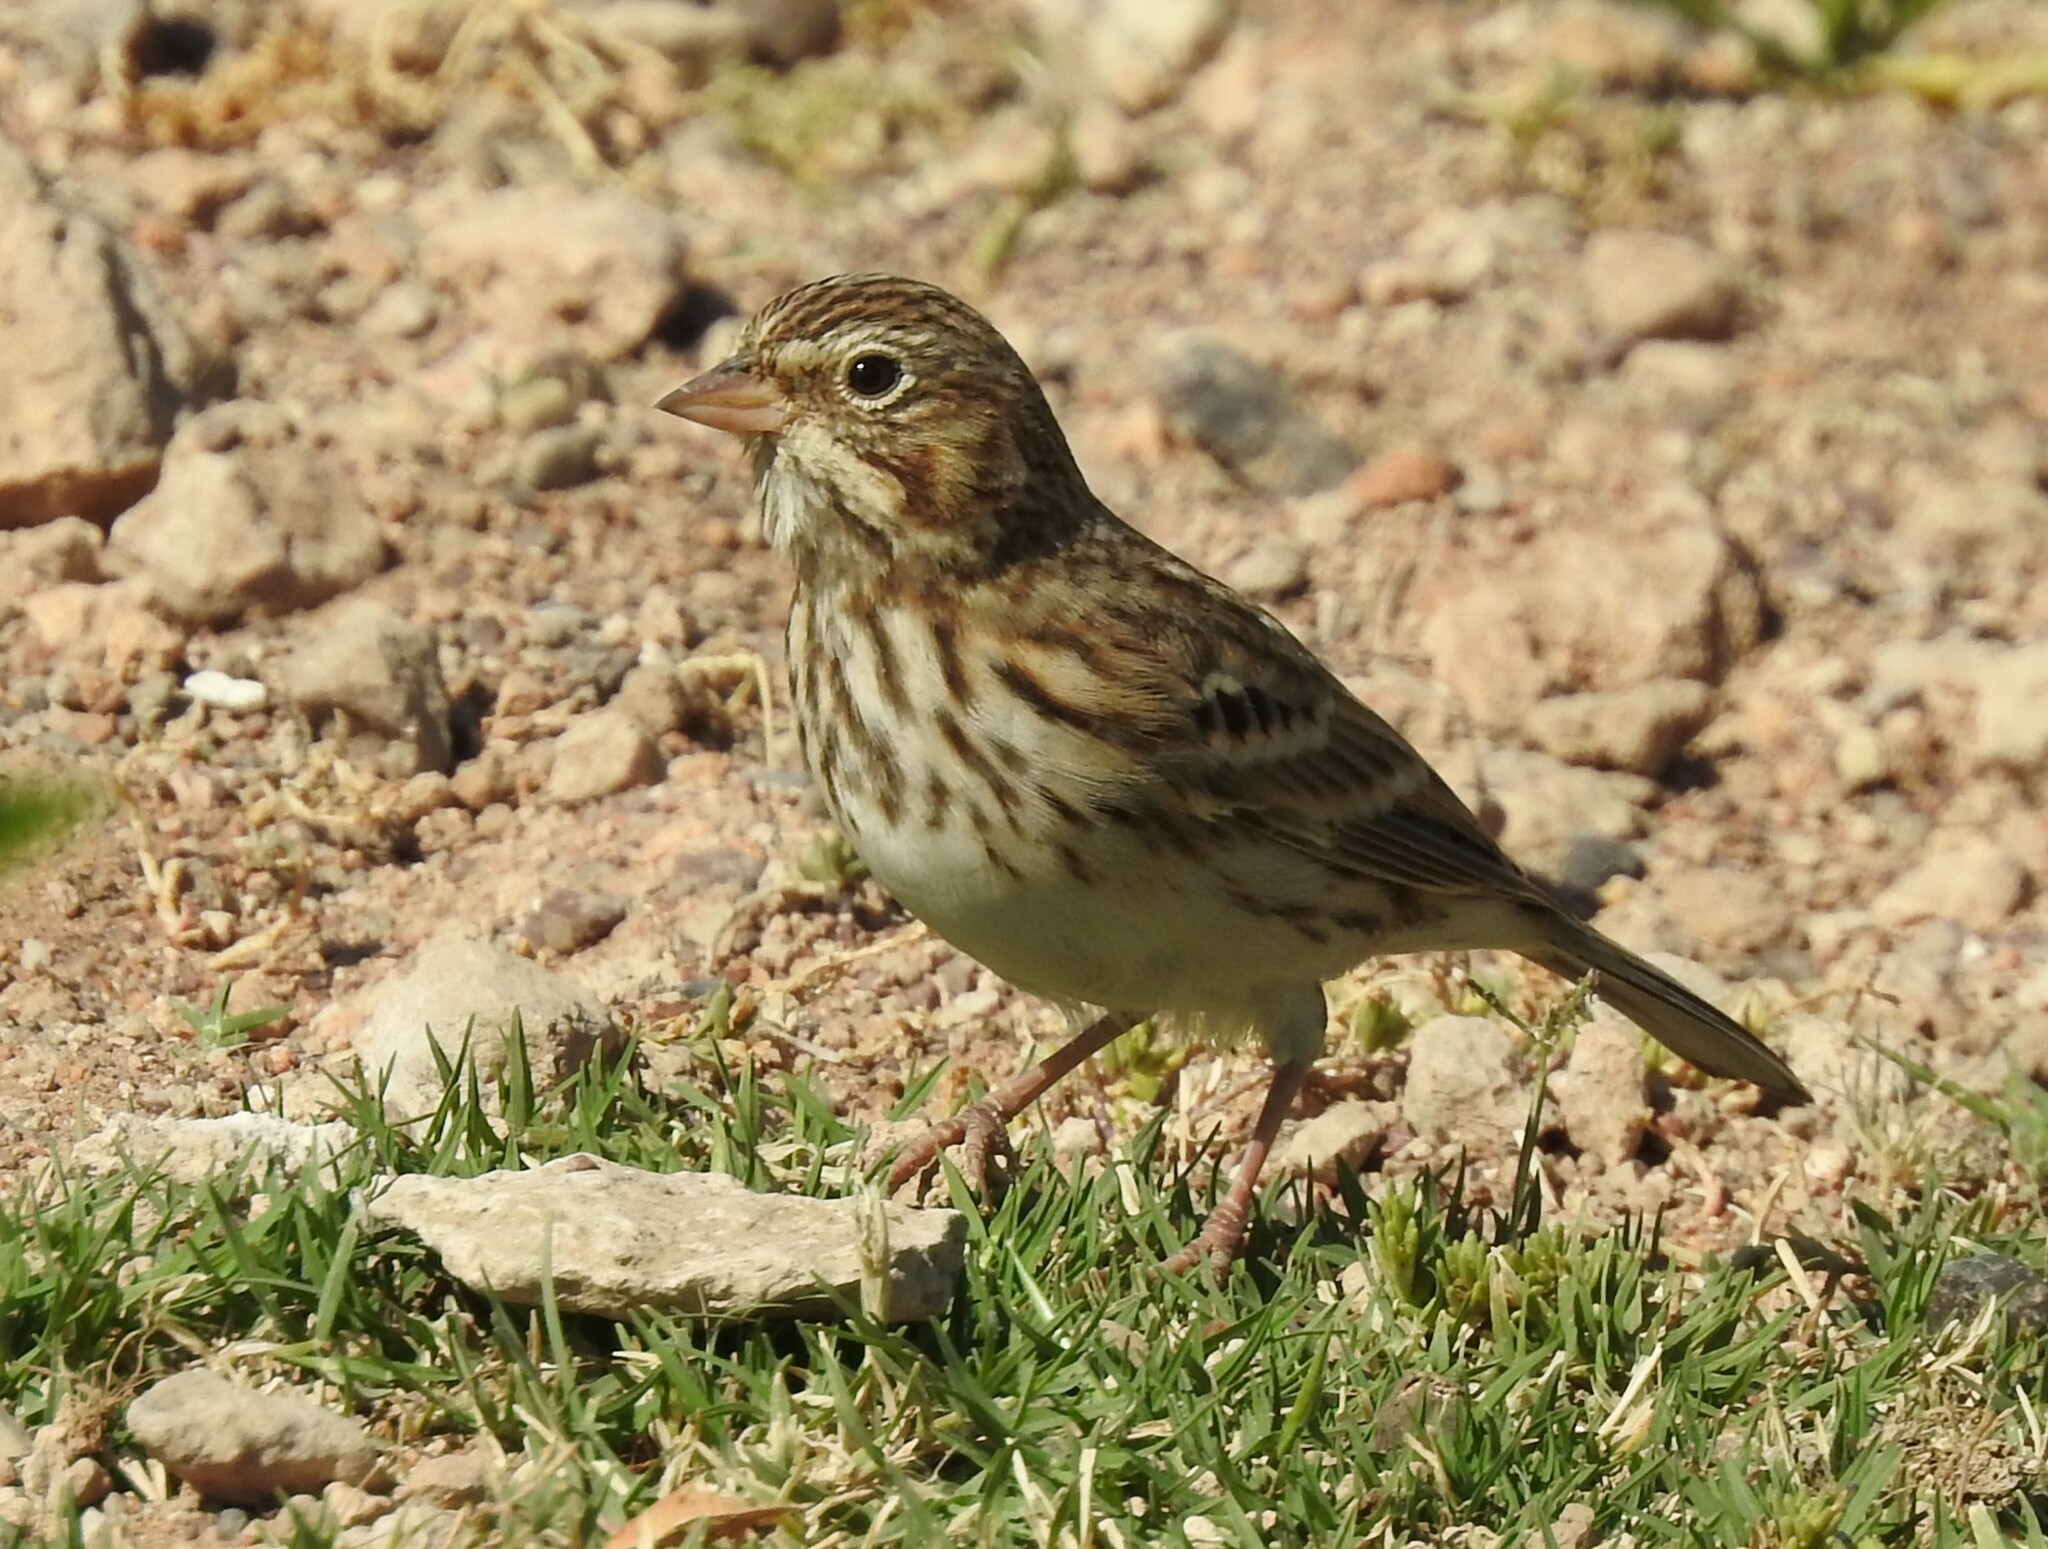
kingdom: Animalia
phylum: Chordata
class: Aves
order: Passeriformes
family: Passerellidae
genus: Pooecetes
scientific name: Pooecetes gramineus
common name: Vesper sparrow
